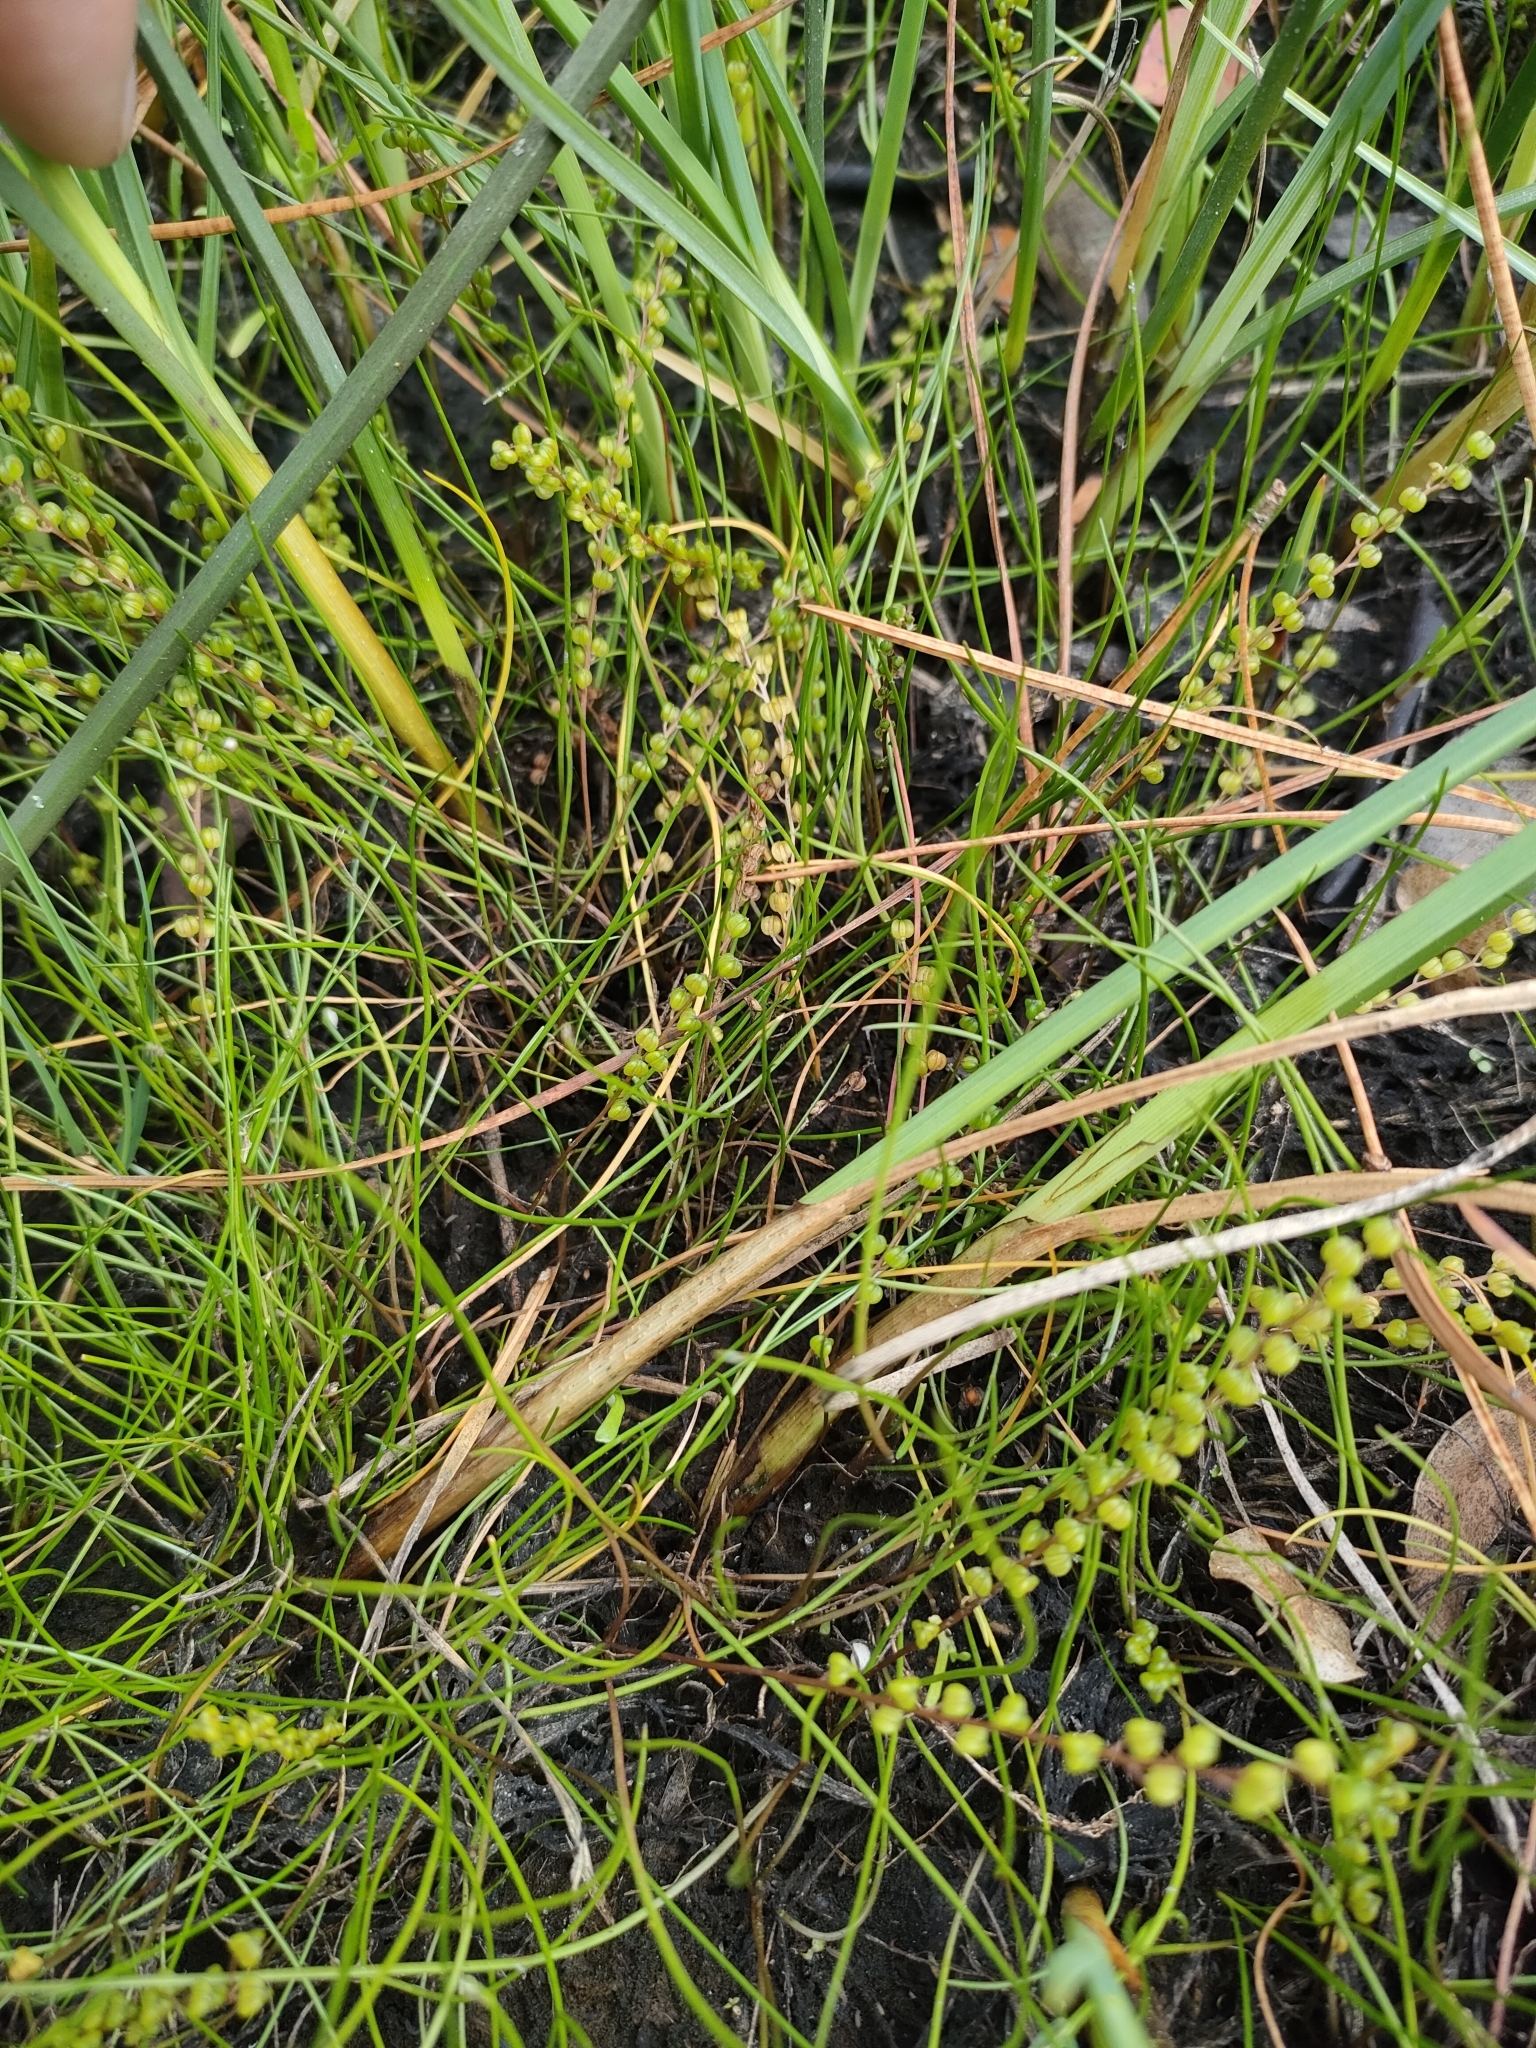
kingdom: Plantae
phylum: Tracheophyta
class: Liliopsida
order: Alismatales
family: Juncaginaceae
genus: Triglochin
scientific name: Triglochin striata
